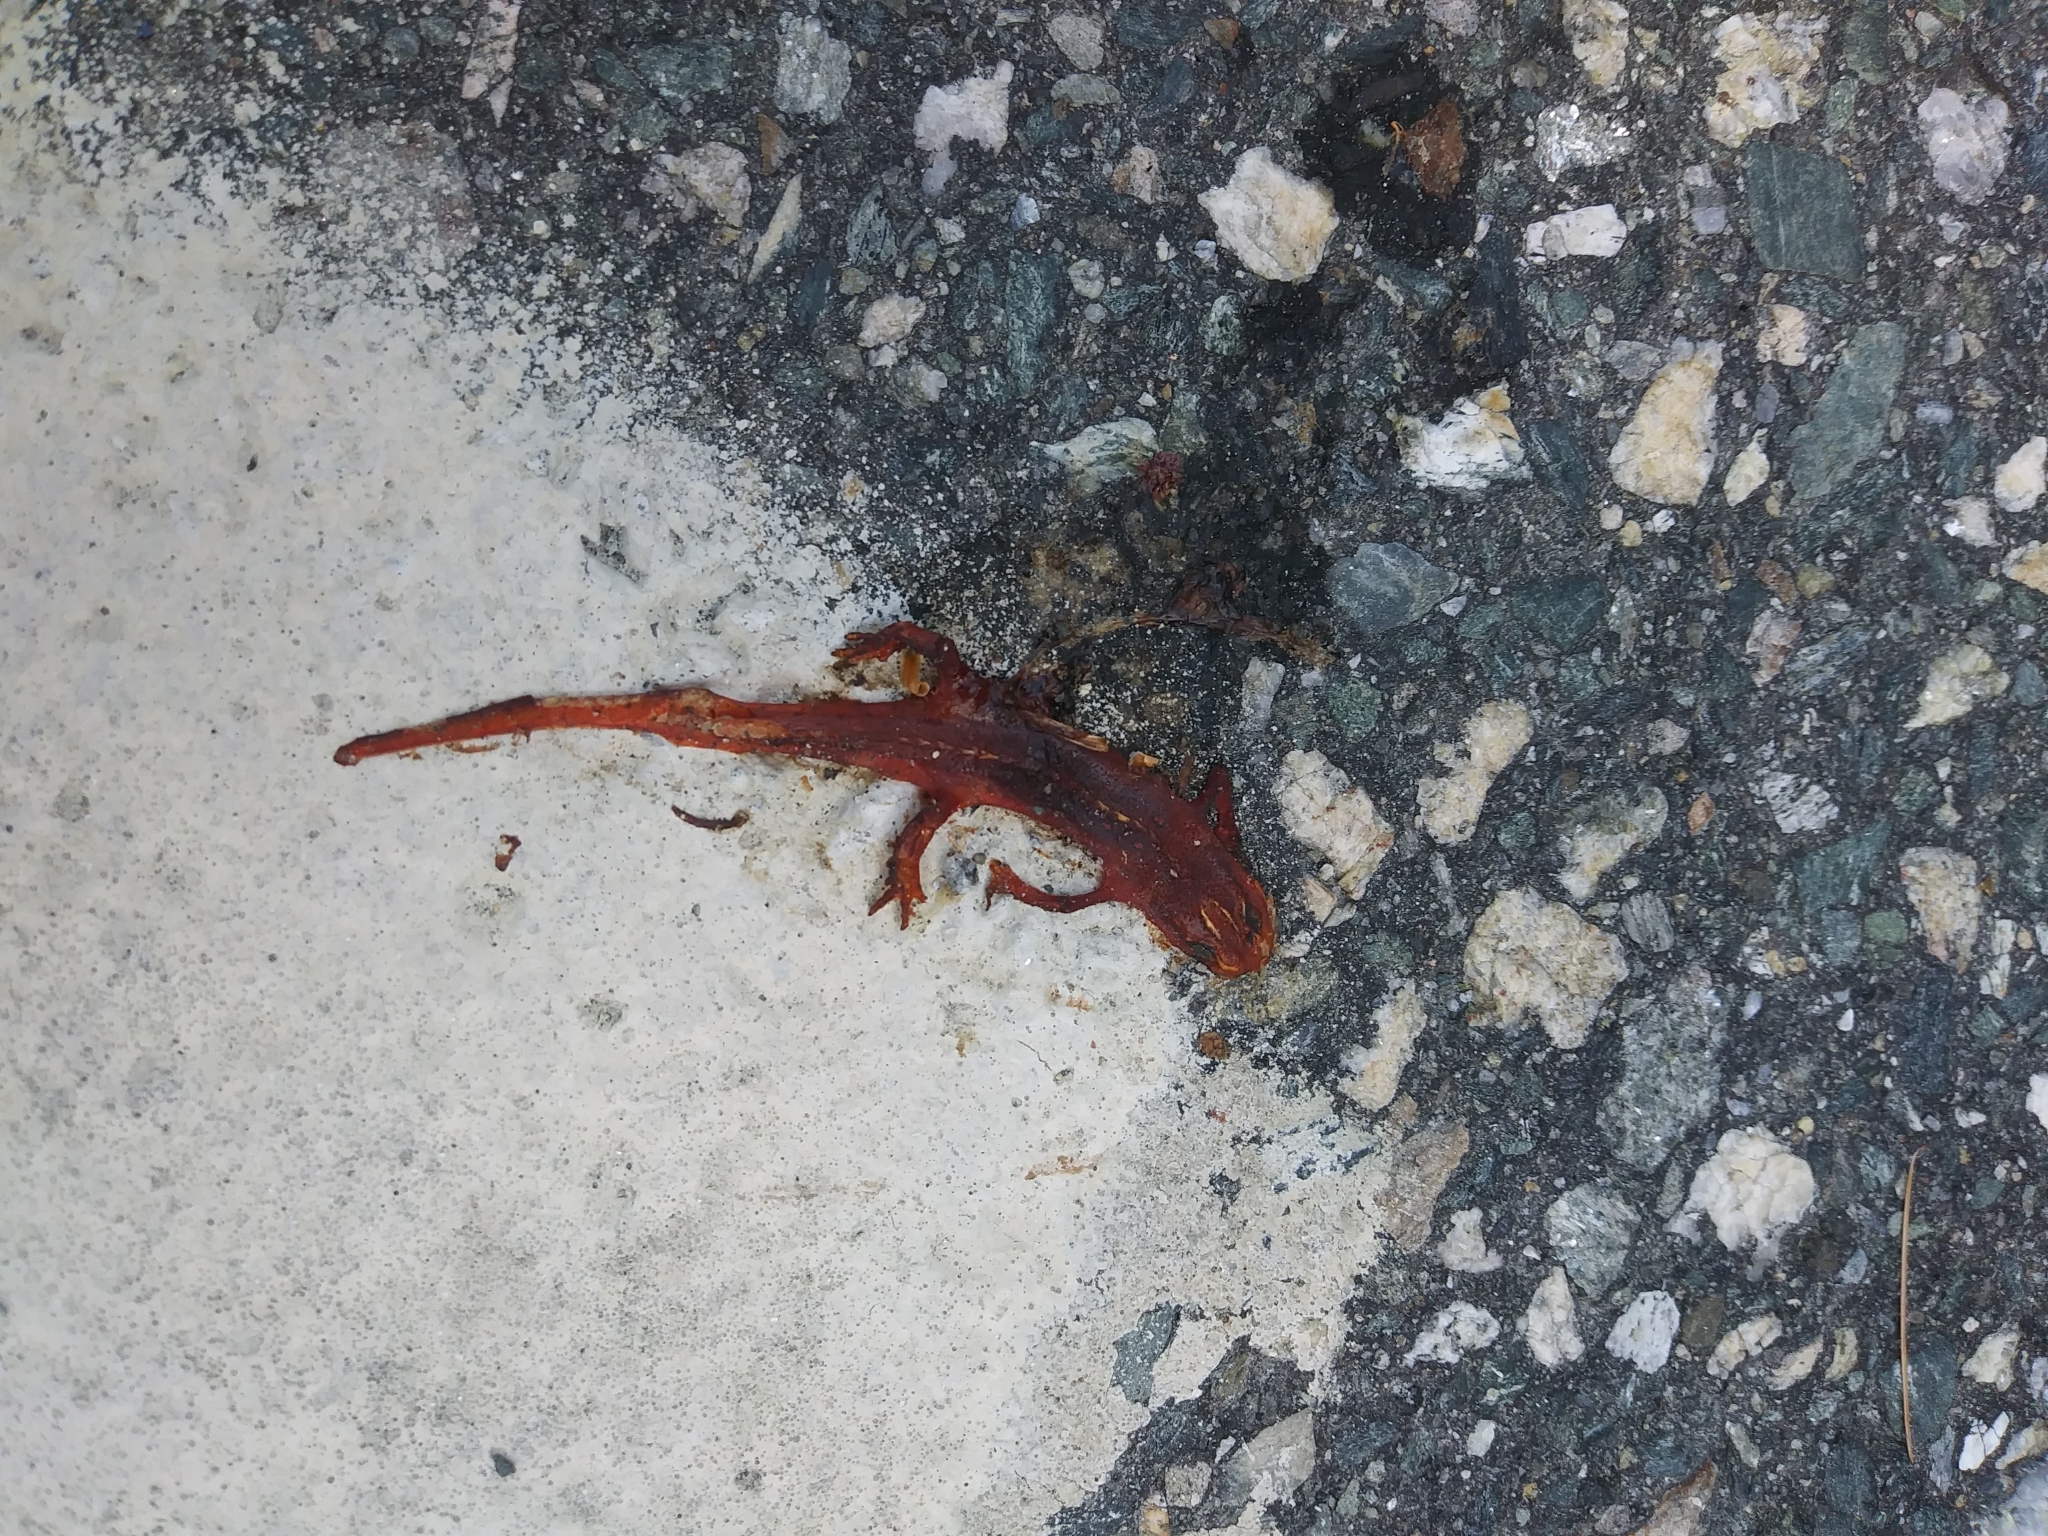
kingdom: Animalia
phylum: Chordata
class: Amphibia
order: Caudata
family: Salamandridae
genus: Notophthalmus
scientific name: Notophthalmus viridescens
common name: Eastern newt
